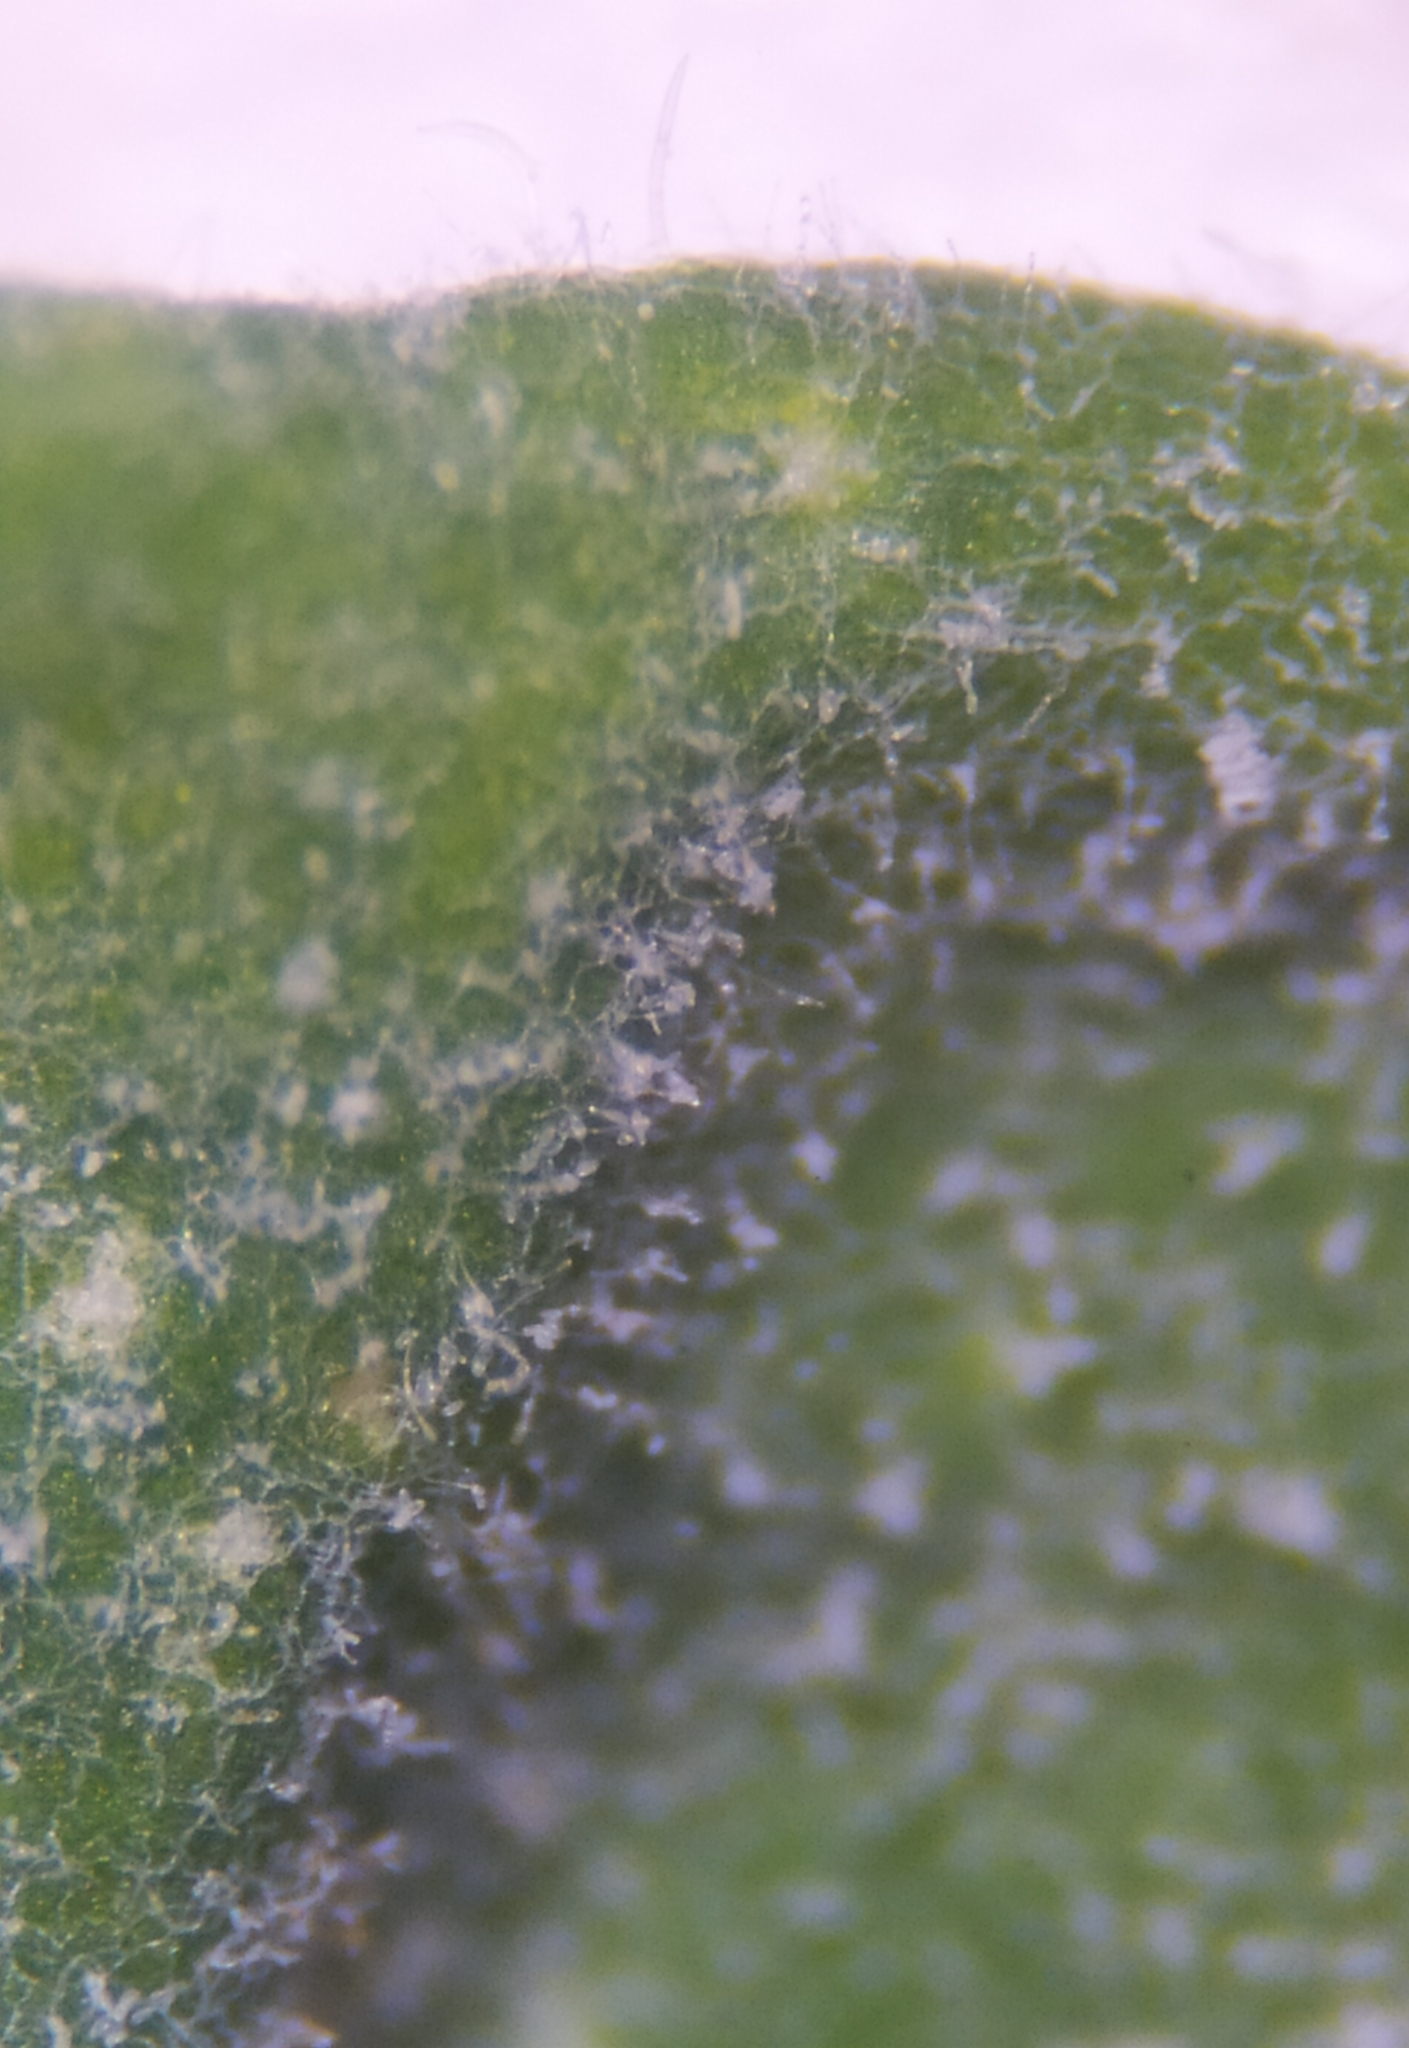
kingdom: Fungi
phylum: Ascomycota
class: Leotiomycetes
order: Helotiales
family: Erysiphaceae
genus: Golovinomyces
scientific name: Golovinomyces orontii
